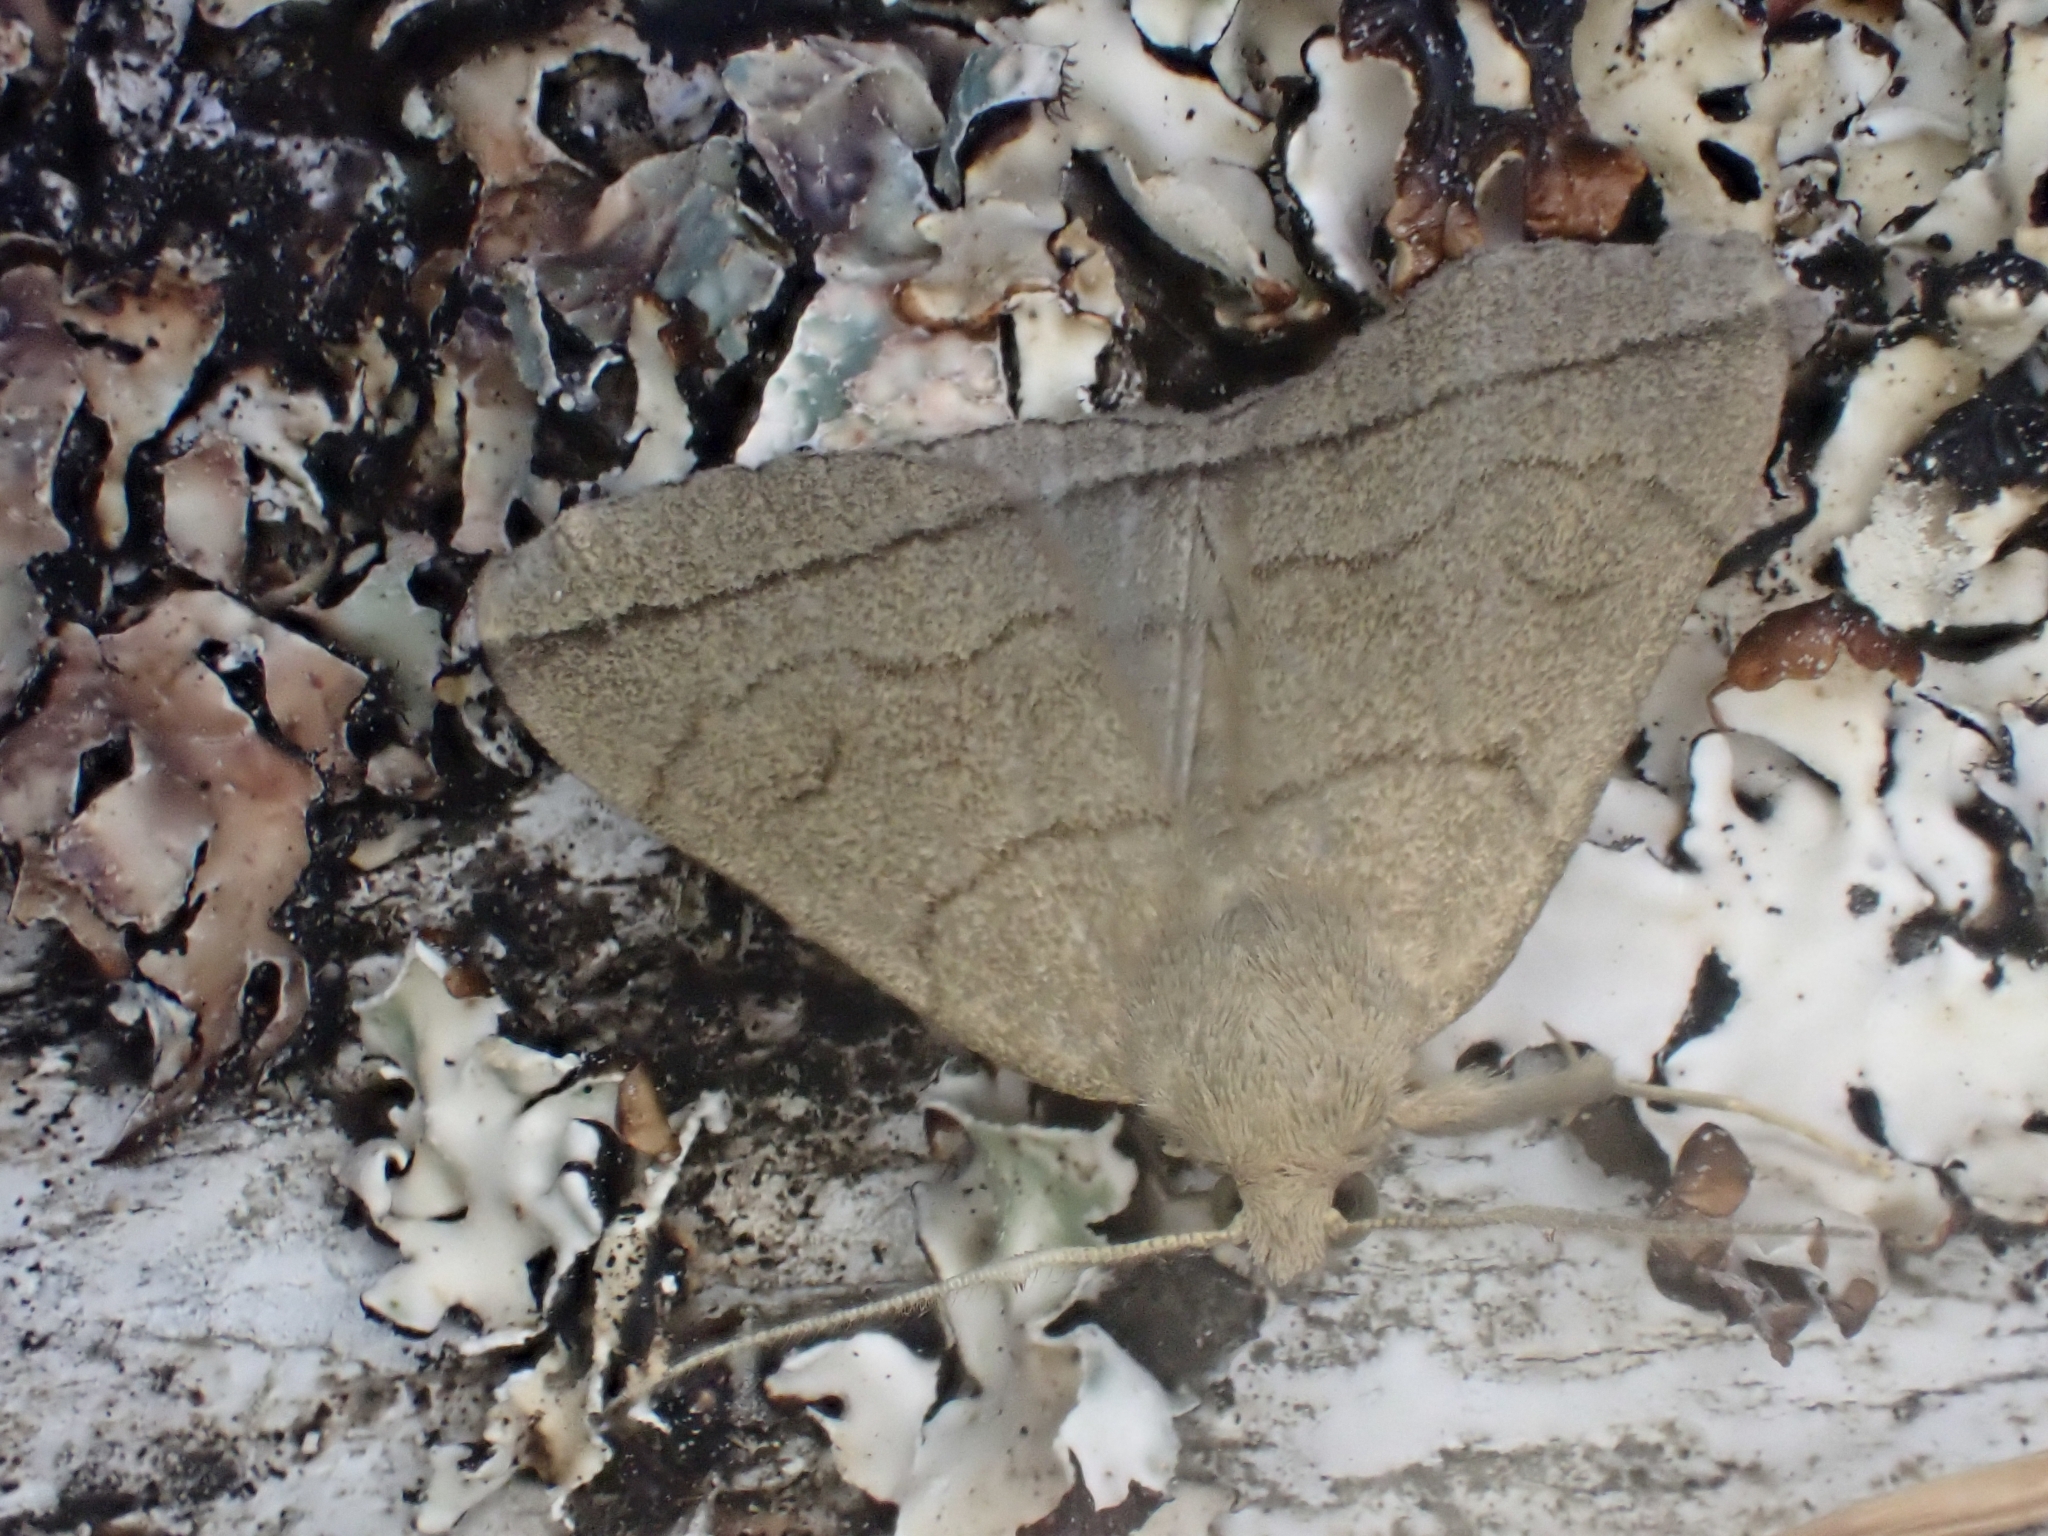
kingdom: Animalia
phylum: Arthropoda
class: Insecta
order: Lepidoptera
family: Erebidae
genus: Herminia
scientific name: Herminia tarsipennalis
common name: Fan-foot
